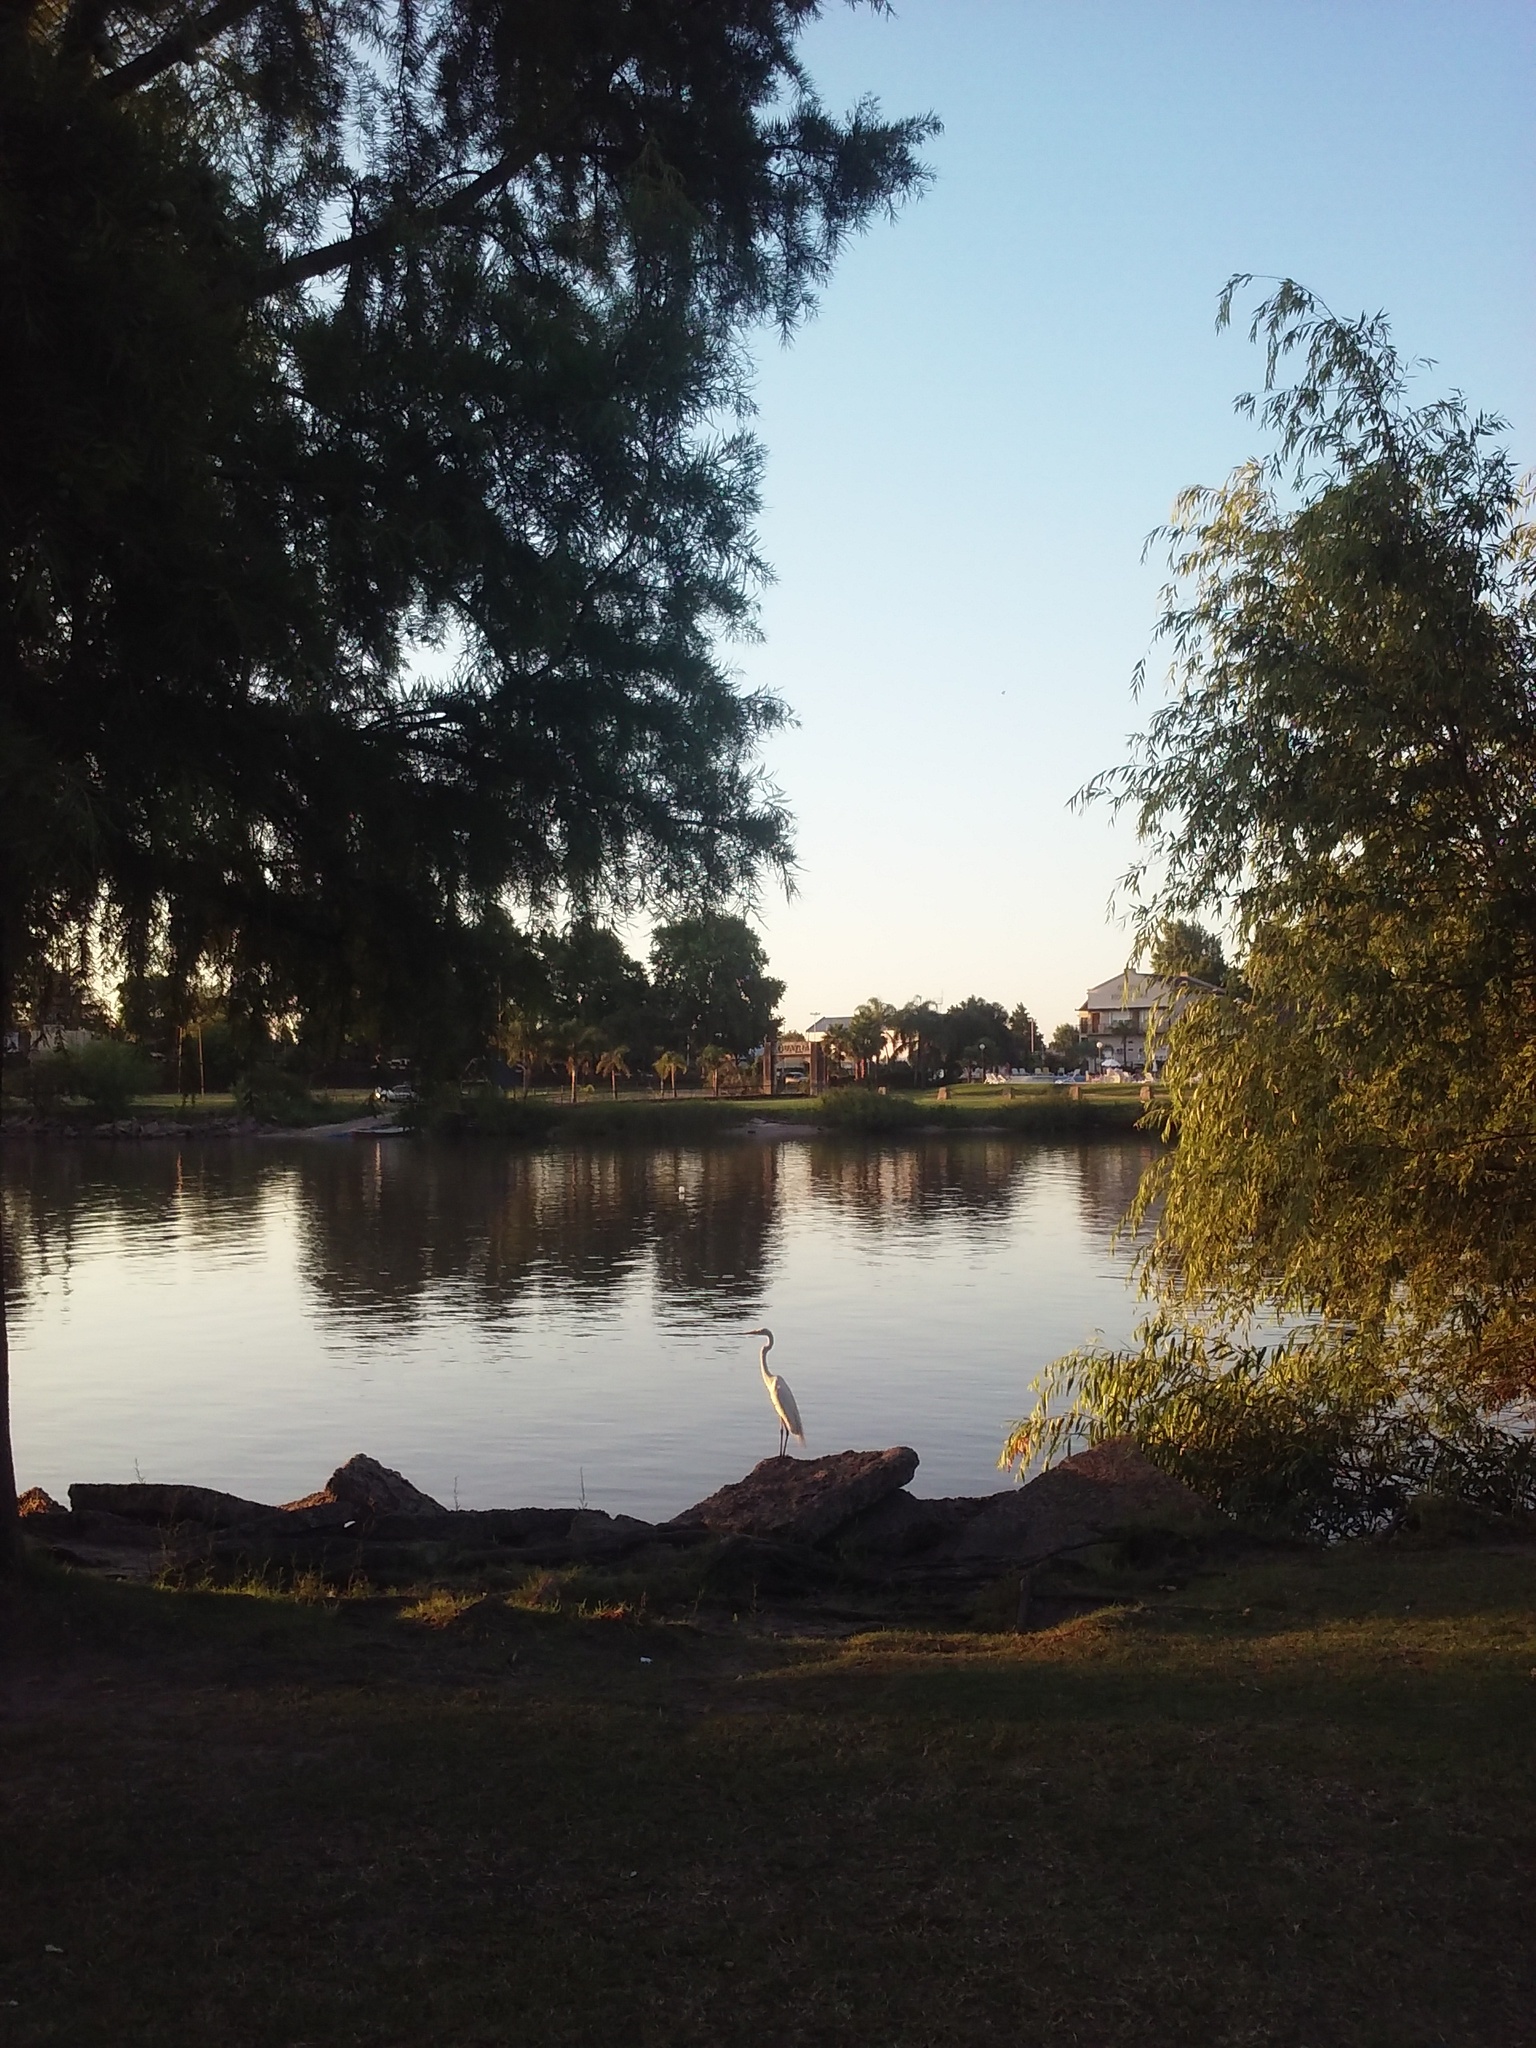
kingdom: Animalia
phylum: Chordata
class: Aves
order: Pelecaniformes
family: Ardeidae
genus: Ardea
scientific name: Ardea alba
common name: Great egret
